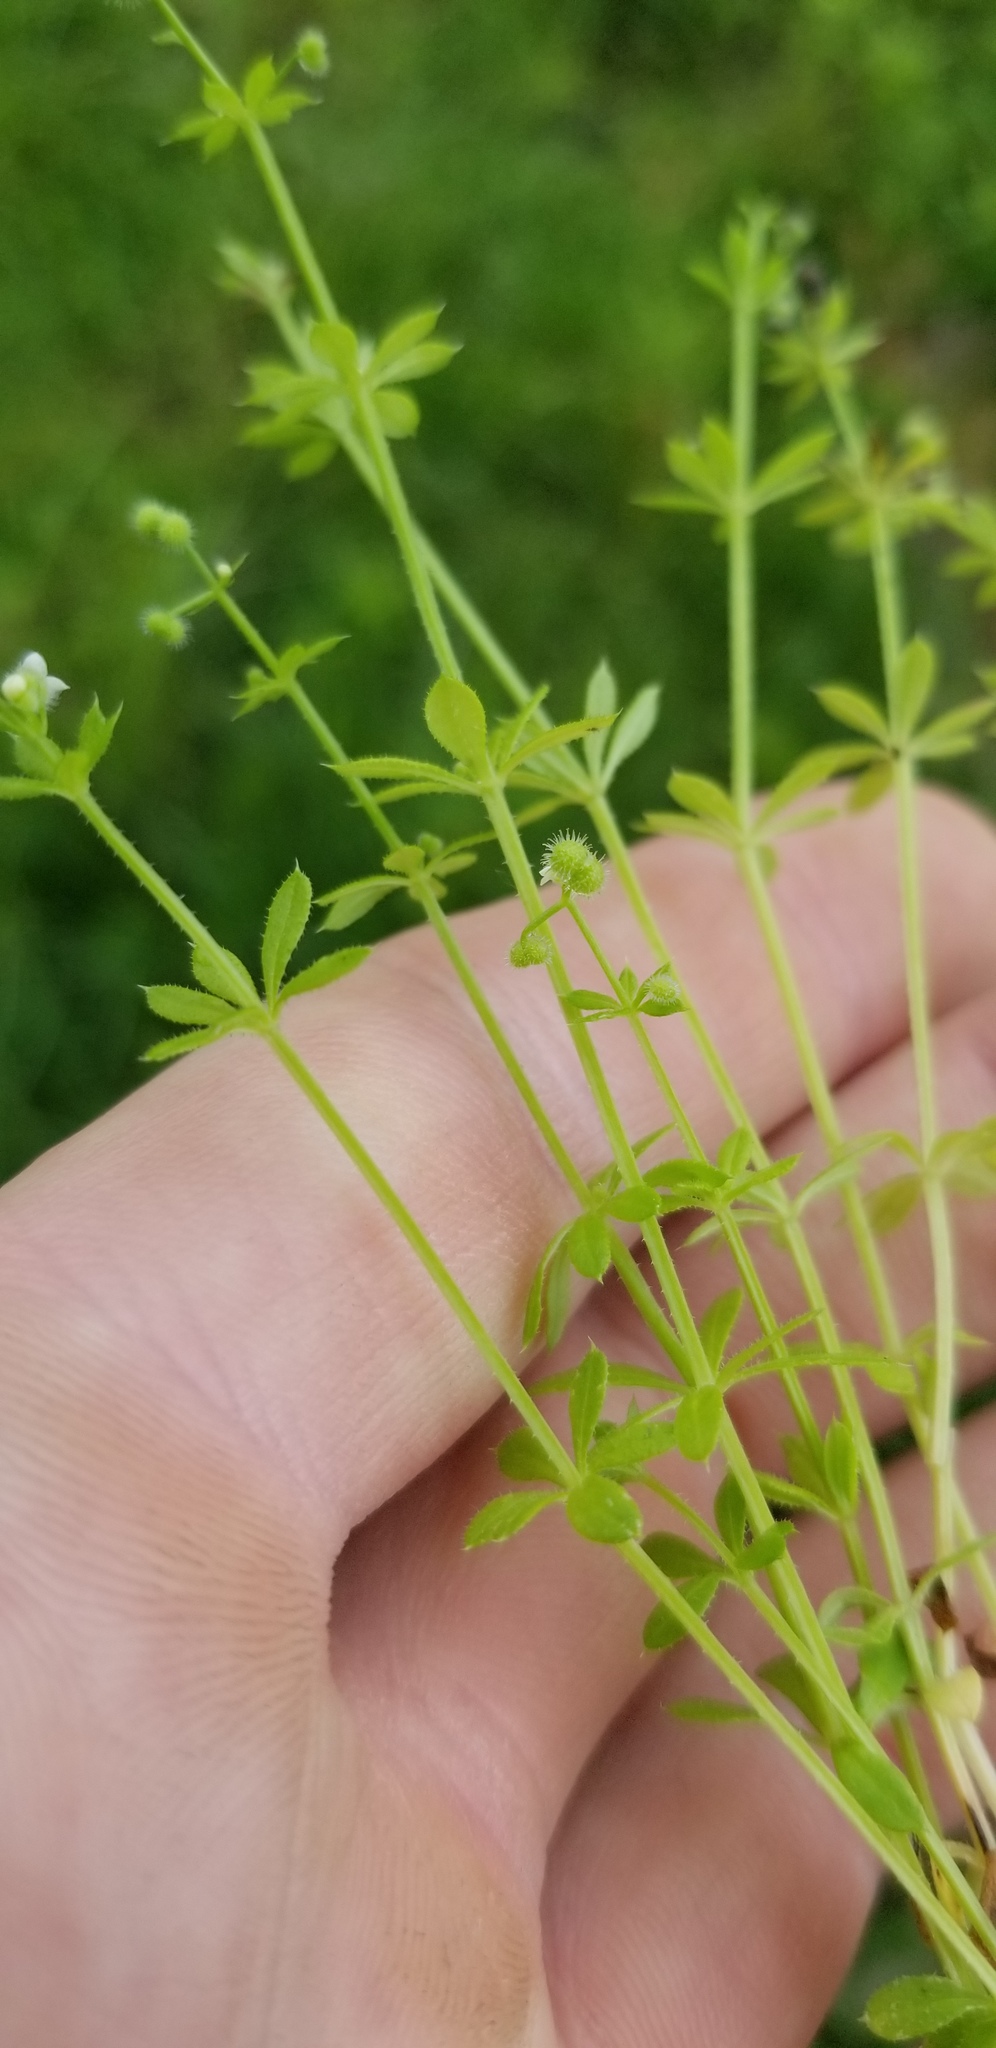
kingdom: Plantae
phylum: Tracheophyta
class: Magnoliopsida
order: Gentianales
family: Rubiaceae
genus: Galium
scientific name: Galium parisiense
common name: Wall bedstraw
